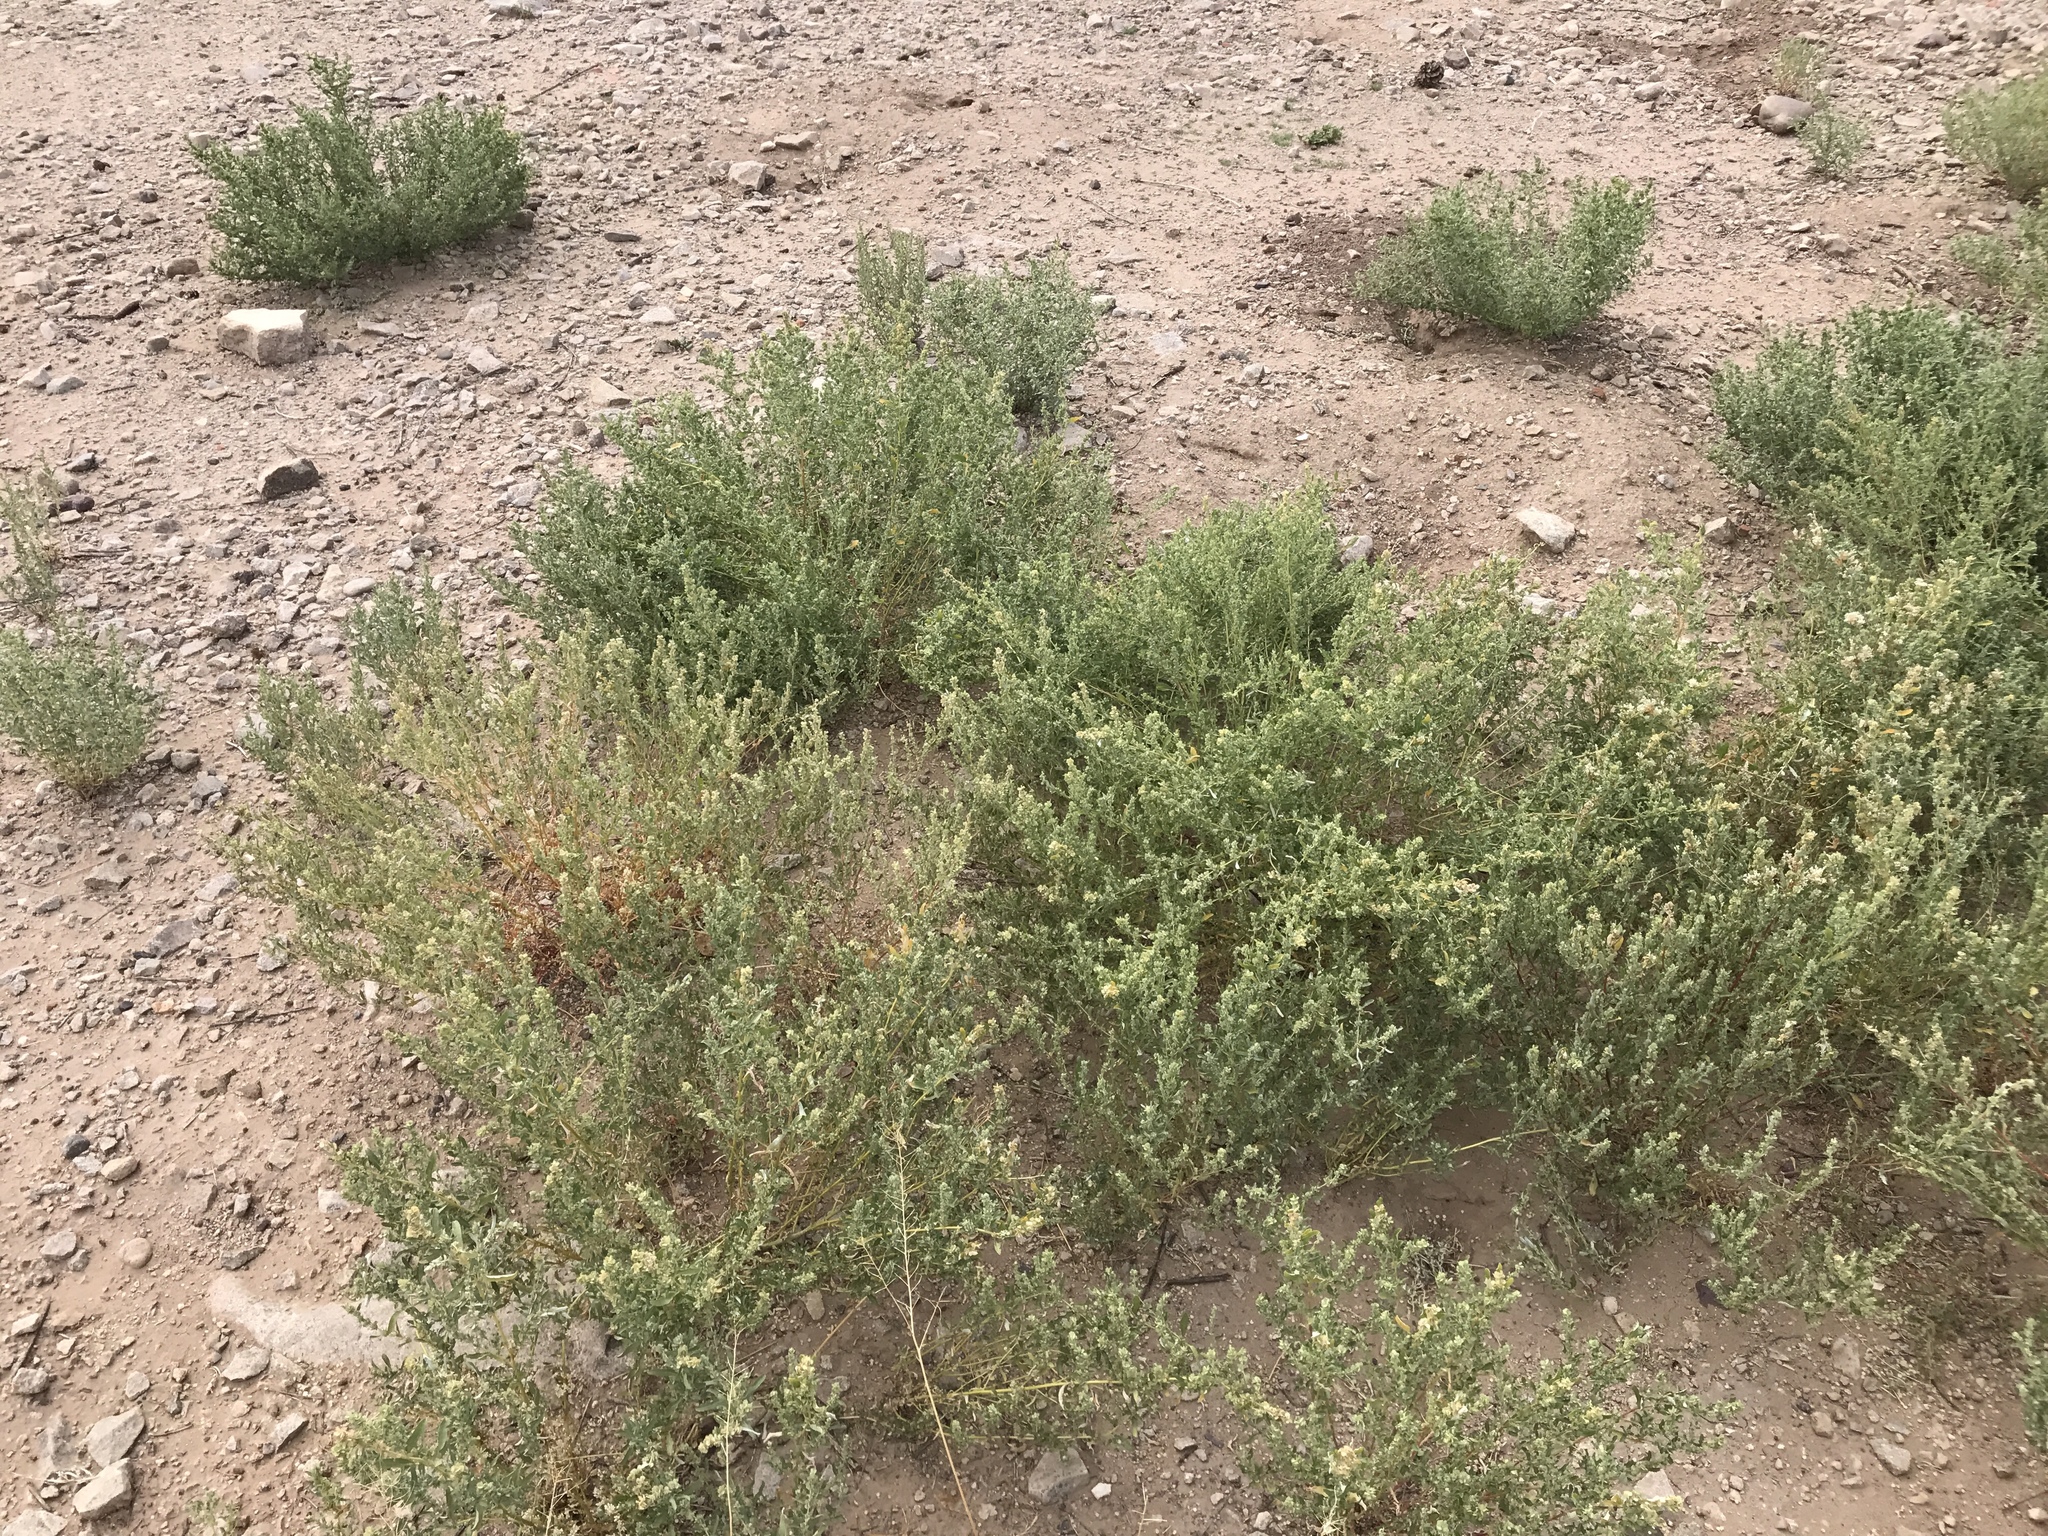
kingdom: Plantae
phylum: Tracheophyta
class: Magnoliopsida
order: Caryophyllales
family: Amaranthaceae
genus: Atriplex
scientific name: Atriplex elegans
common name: Wheelscale orach
